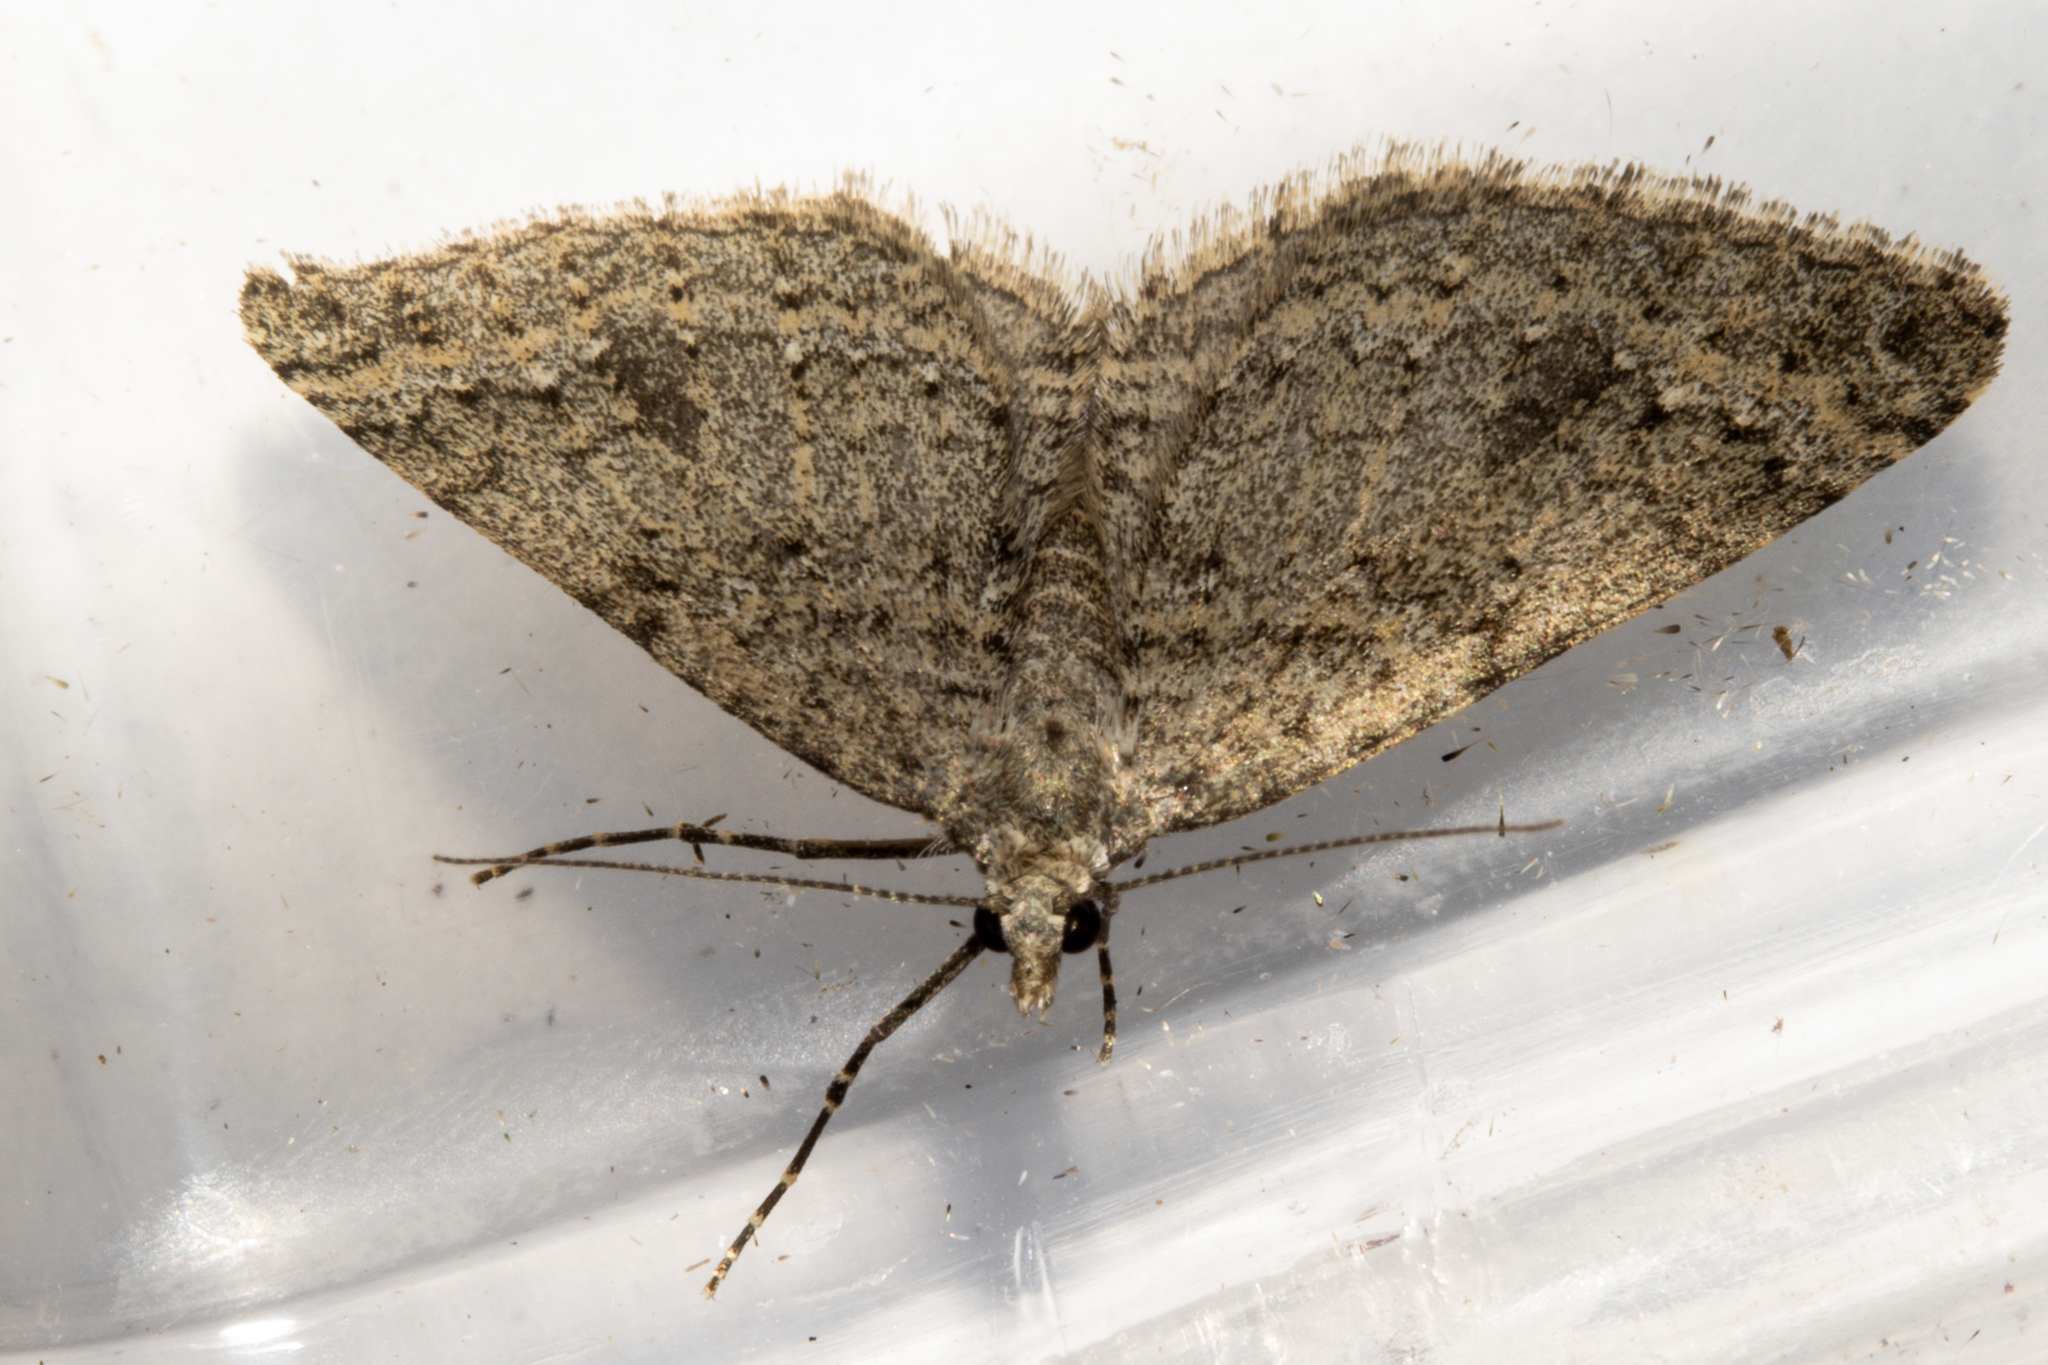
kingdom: Animalia
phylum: Arthropoda
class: Insecta
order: Lepidoptera
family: Geometridae
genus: Helastia
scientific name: Helastia corcularia
